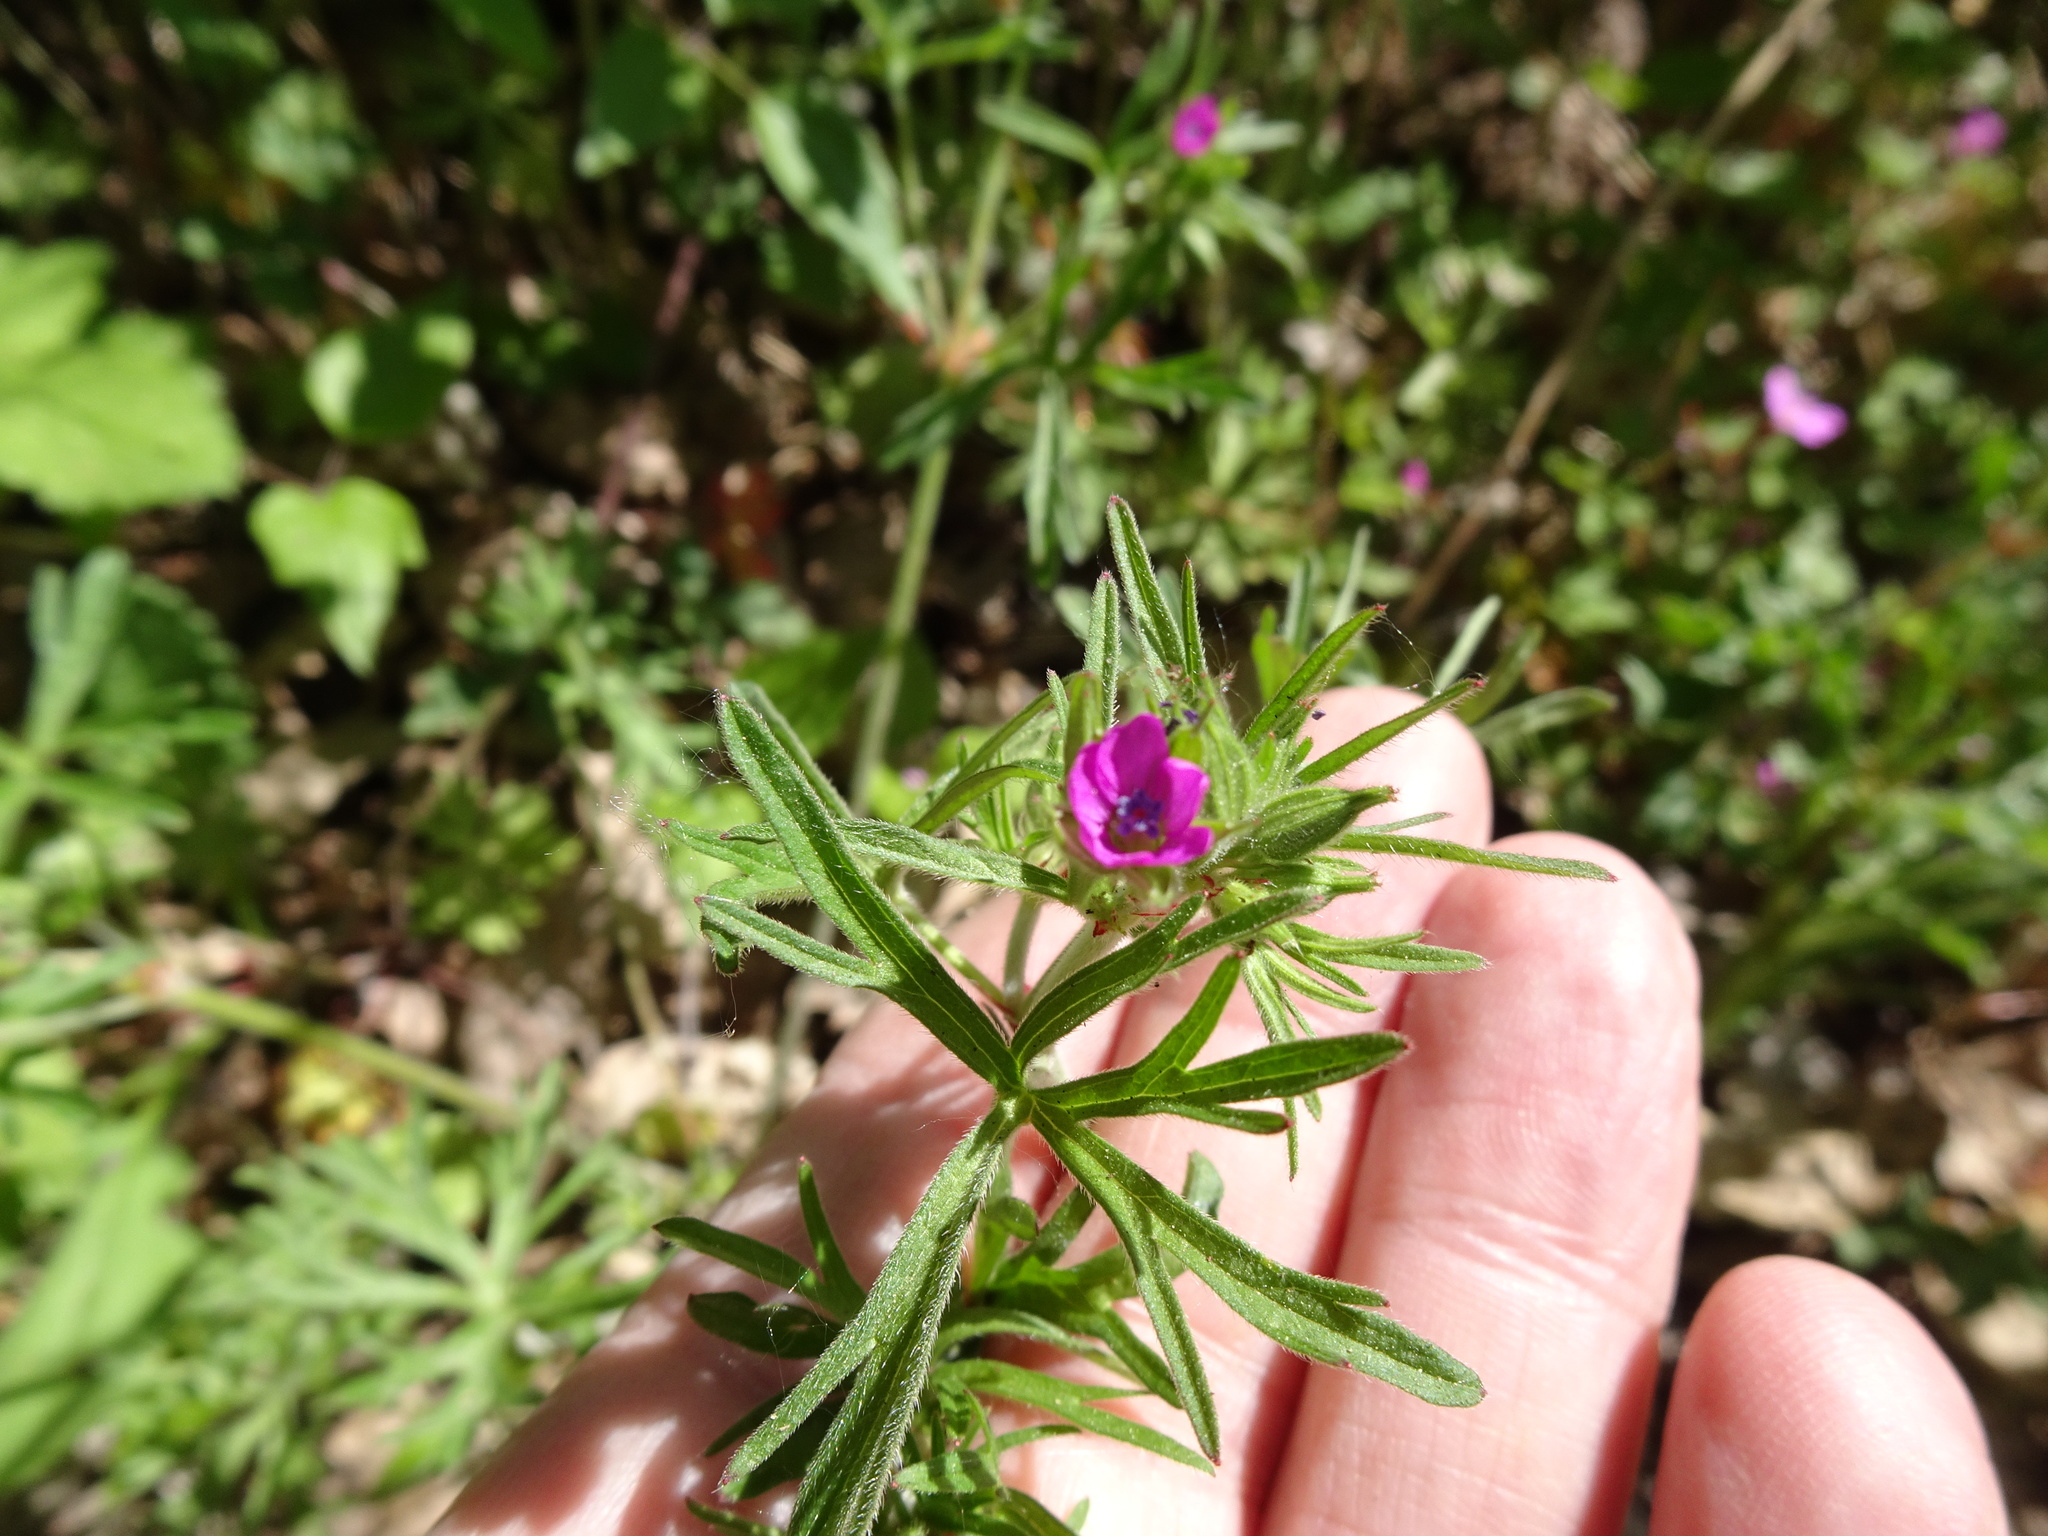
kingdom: Plantae
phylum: Tracheophyta
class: Magnoliopsida
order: Geraniales
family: Geraniaceae
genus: Geranium
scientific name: Geranium dissectum
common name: Cut-leaved crane's-bill
